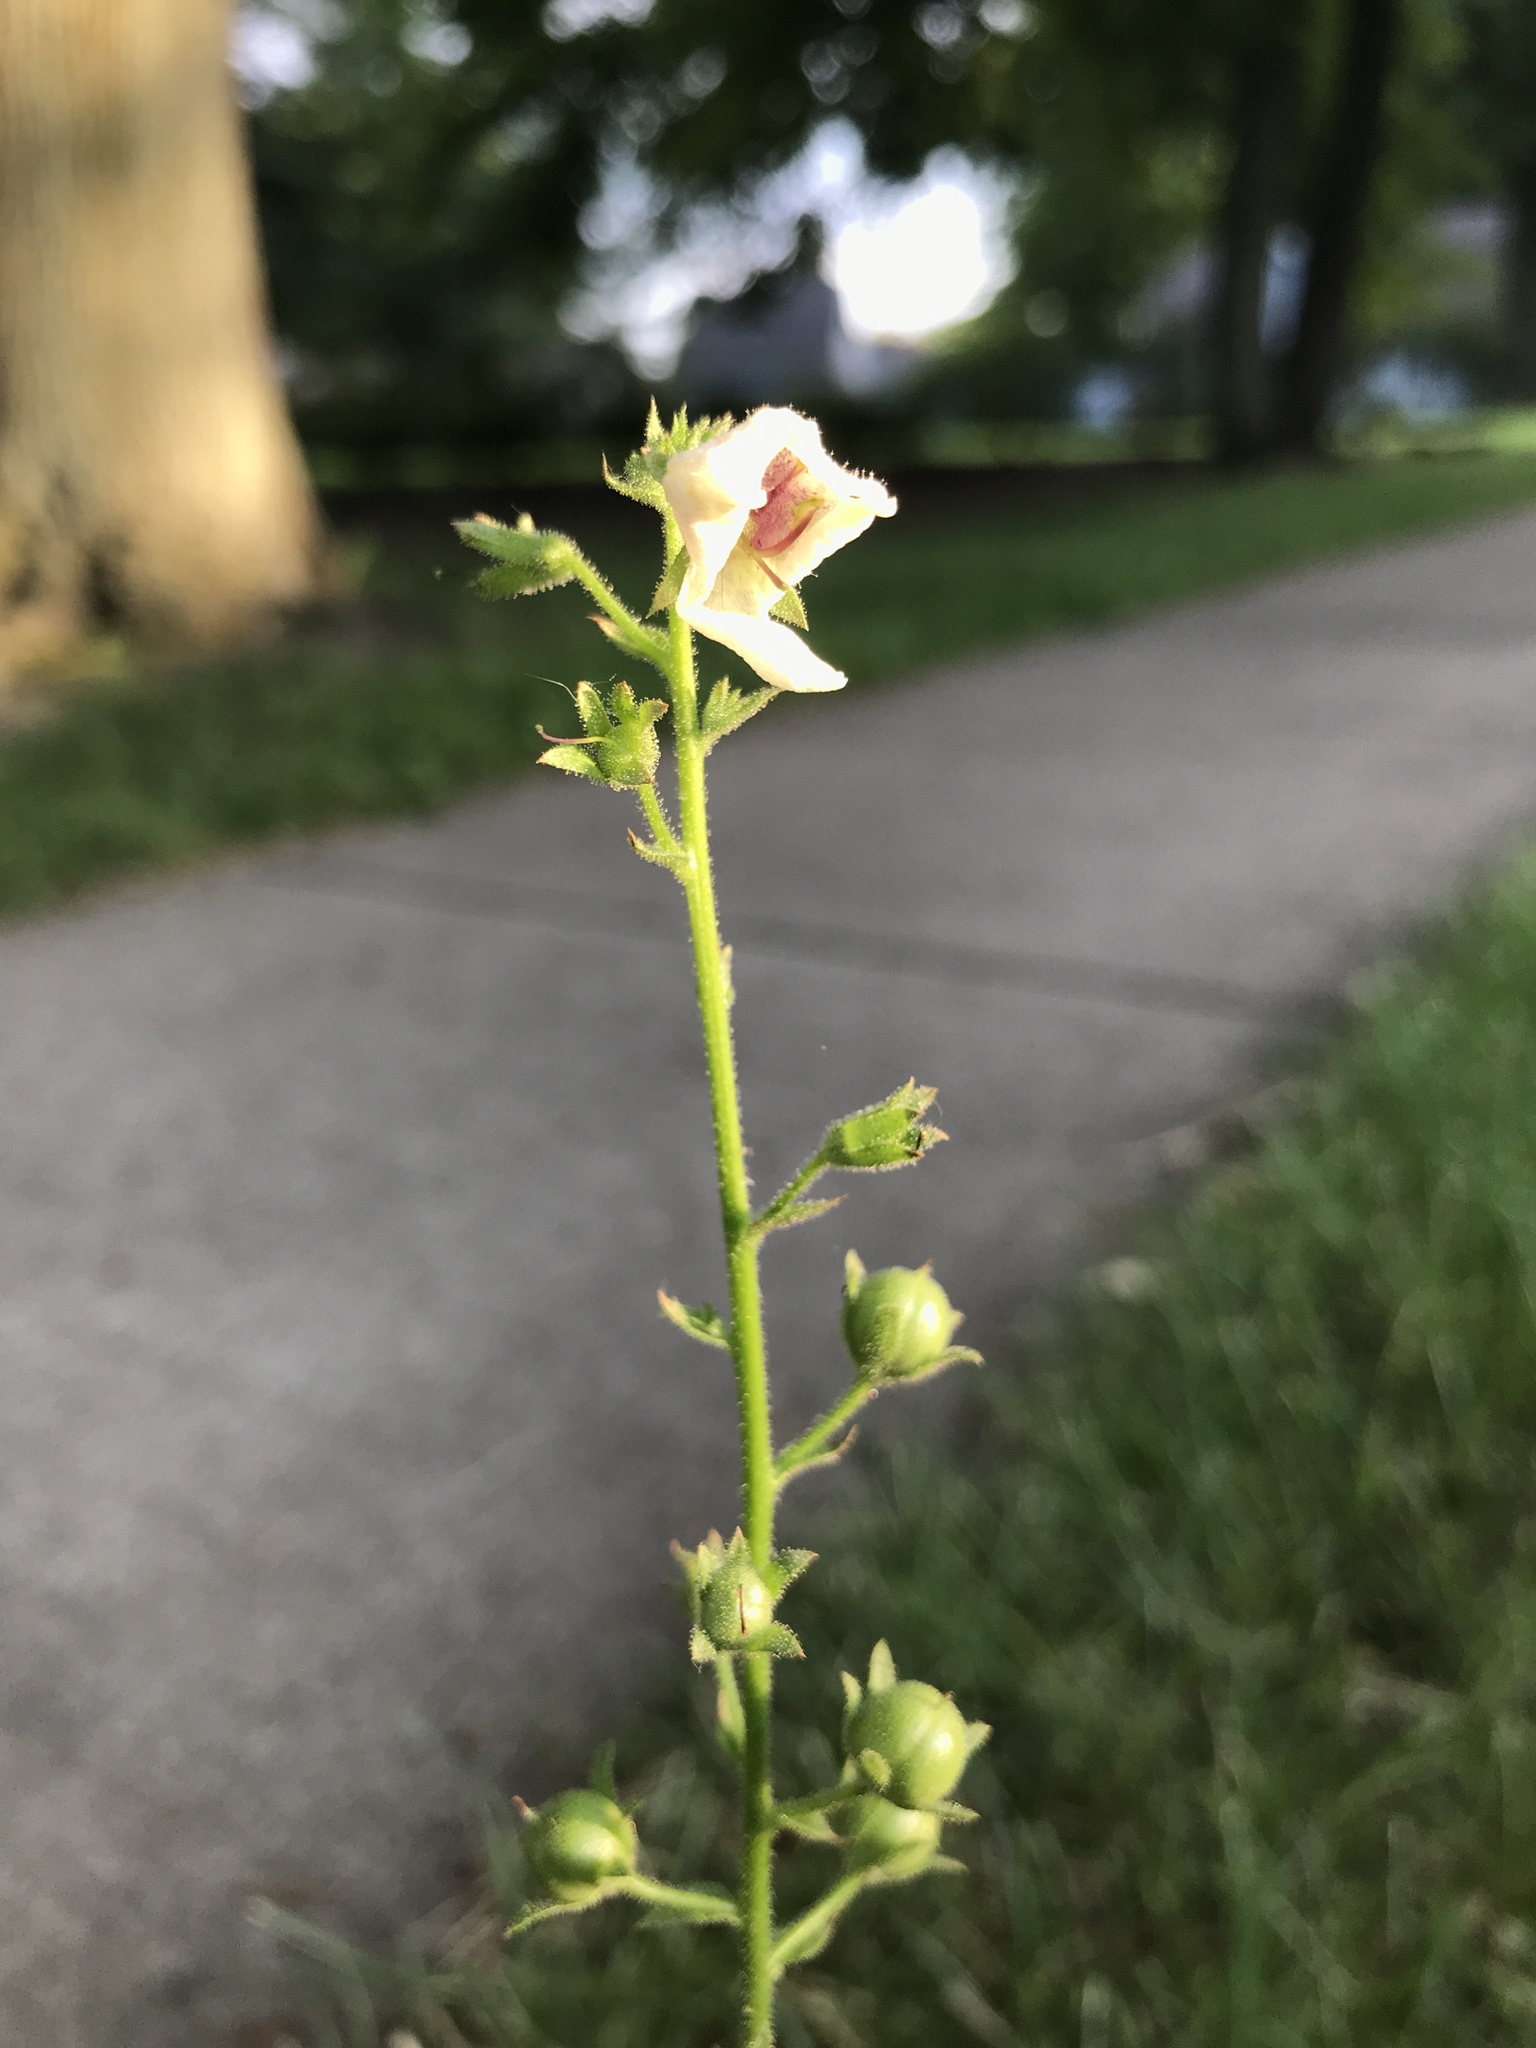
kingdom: Plantae
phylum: Tracheophyta
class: Magnoliopsida
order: Lamiales
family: Scrophulariaceae
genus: Verbascum
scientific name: Verbascum blattaria
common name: Moth mullein
